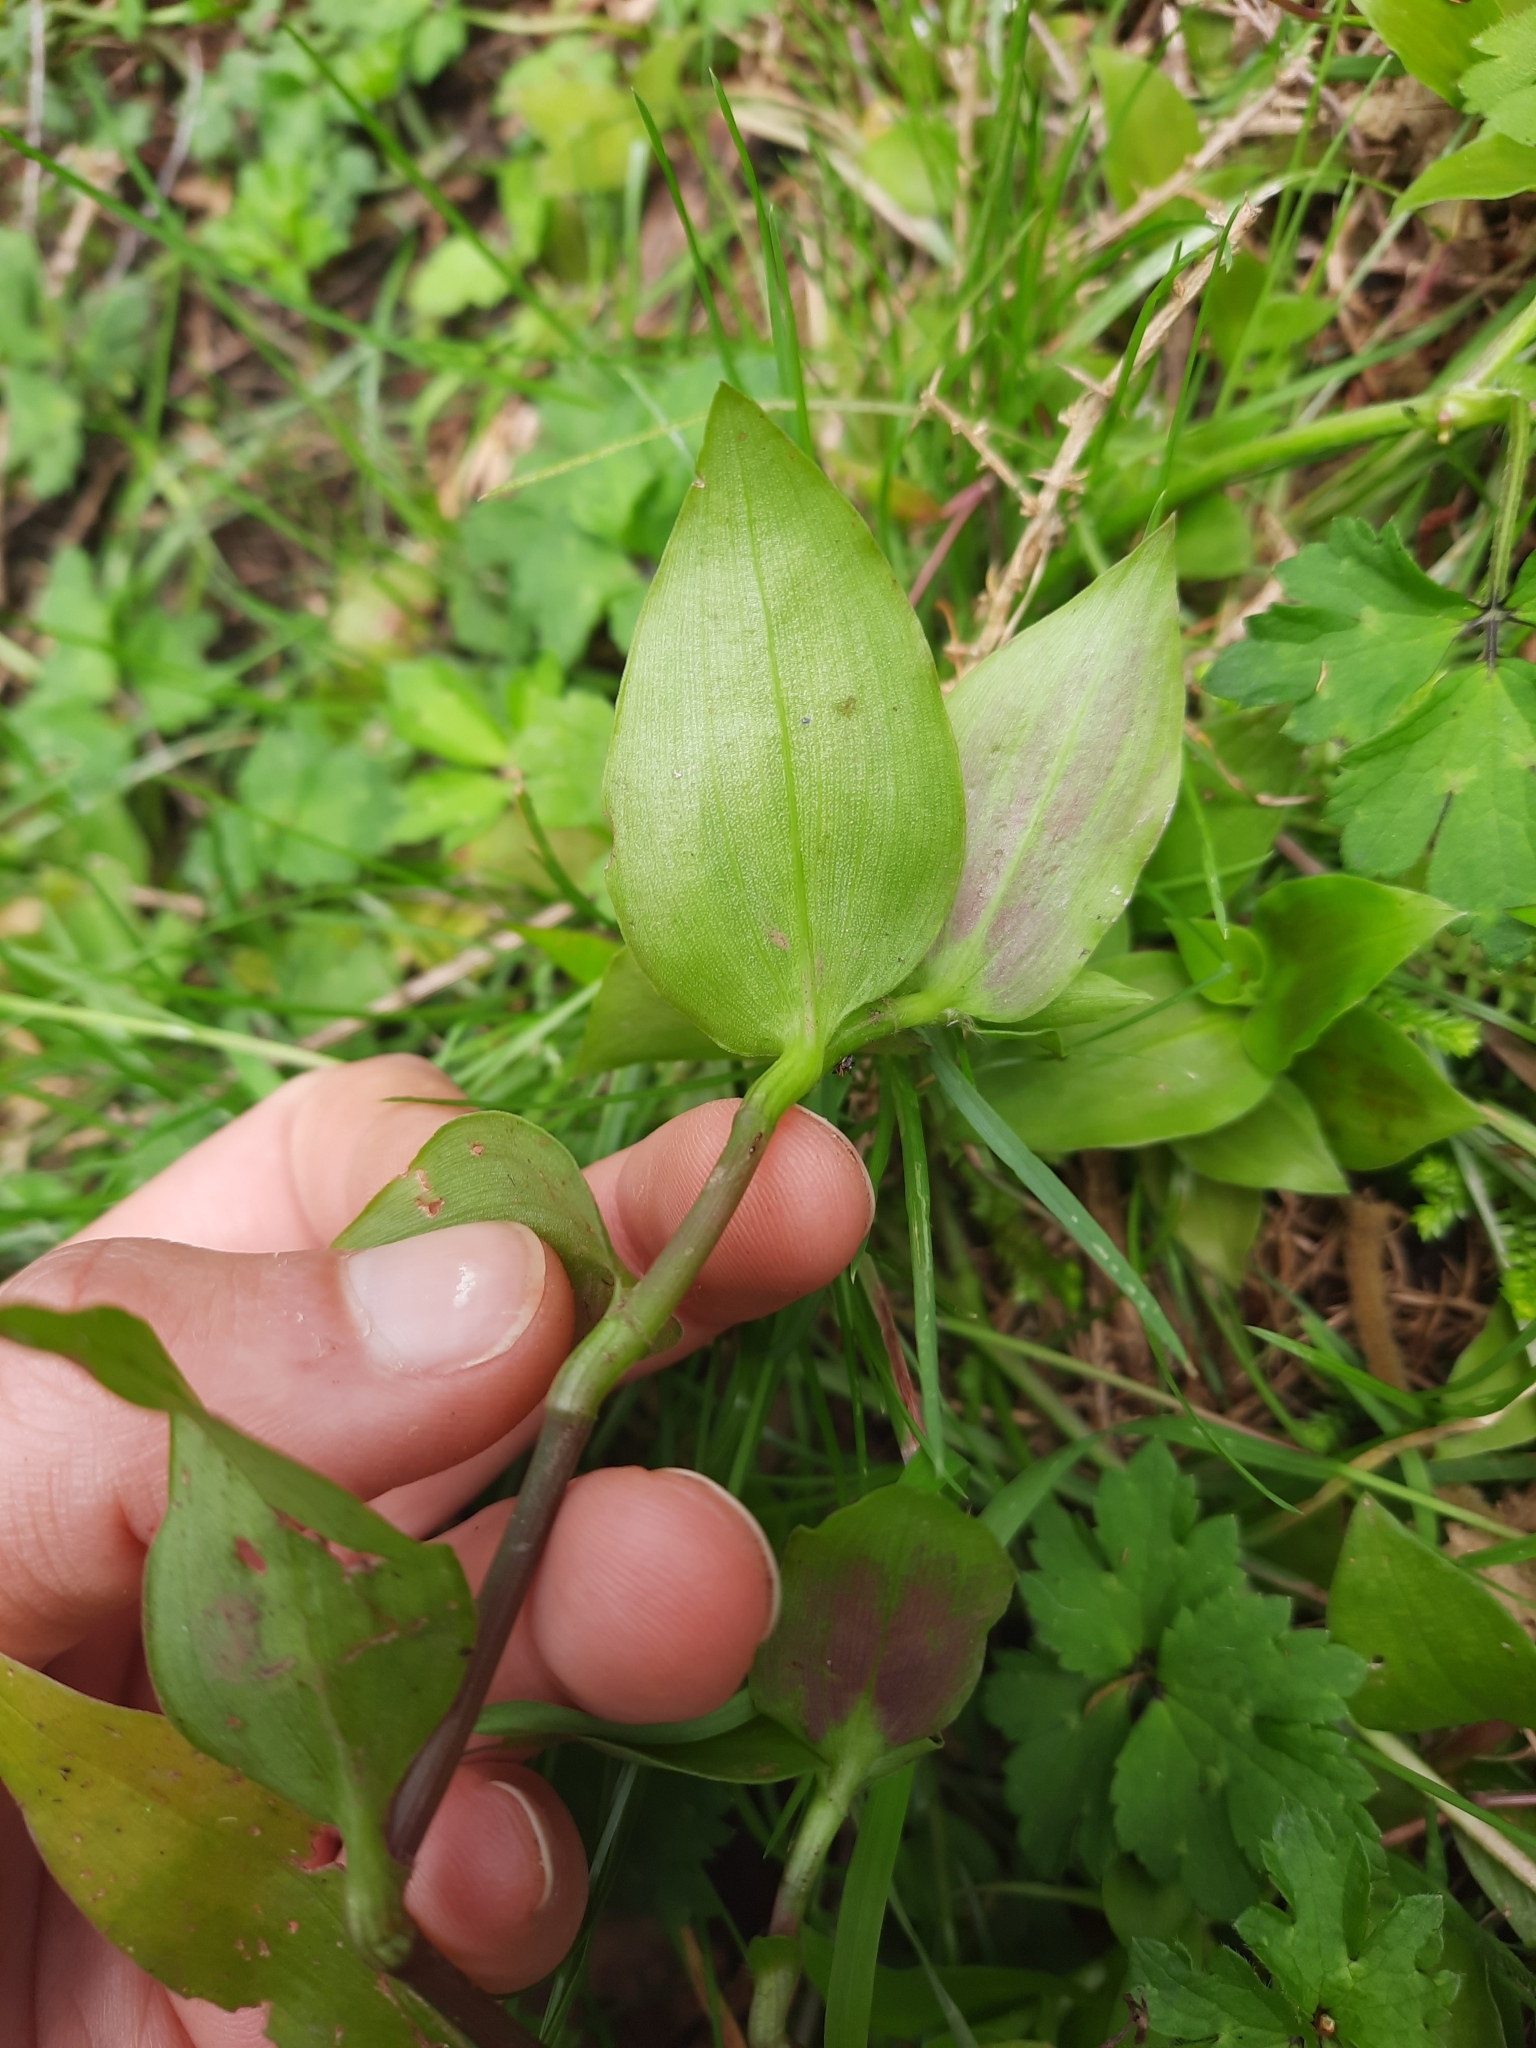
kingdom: Plantae
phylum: Tracheophyta
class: Liliopsida
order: Commelinales
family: Commelinaceae
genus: Tradescantia
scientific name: Tradescantia fluminensis
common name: Wandering-jew
